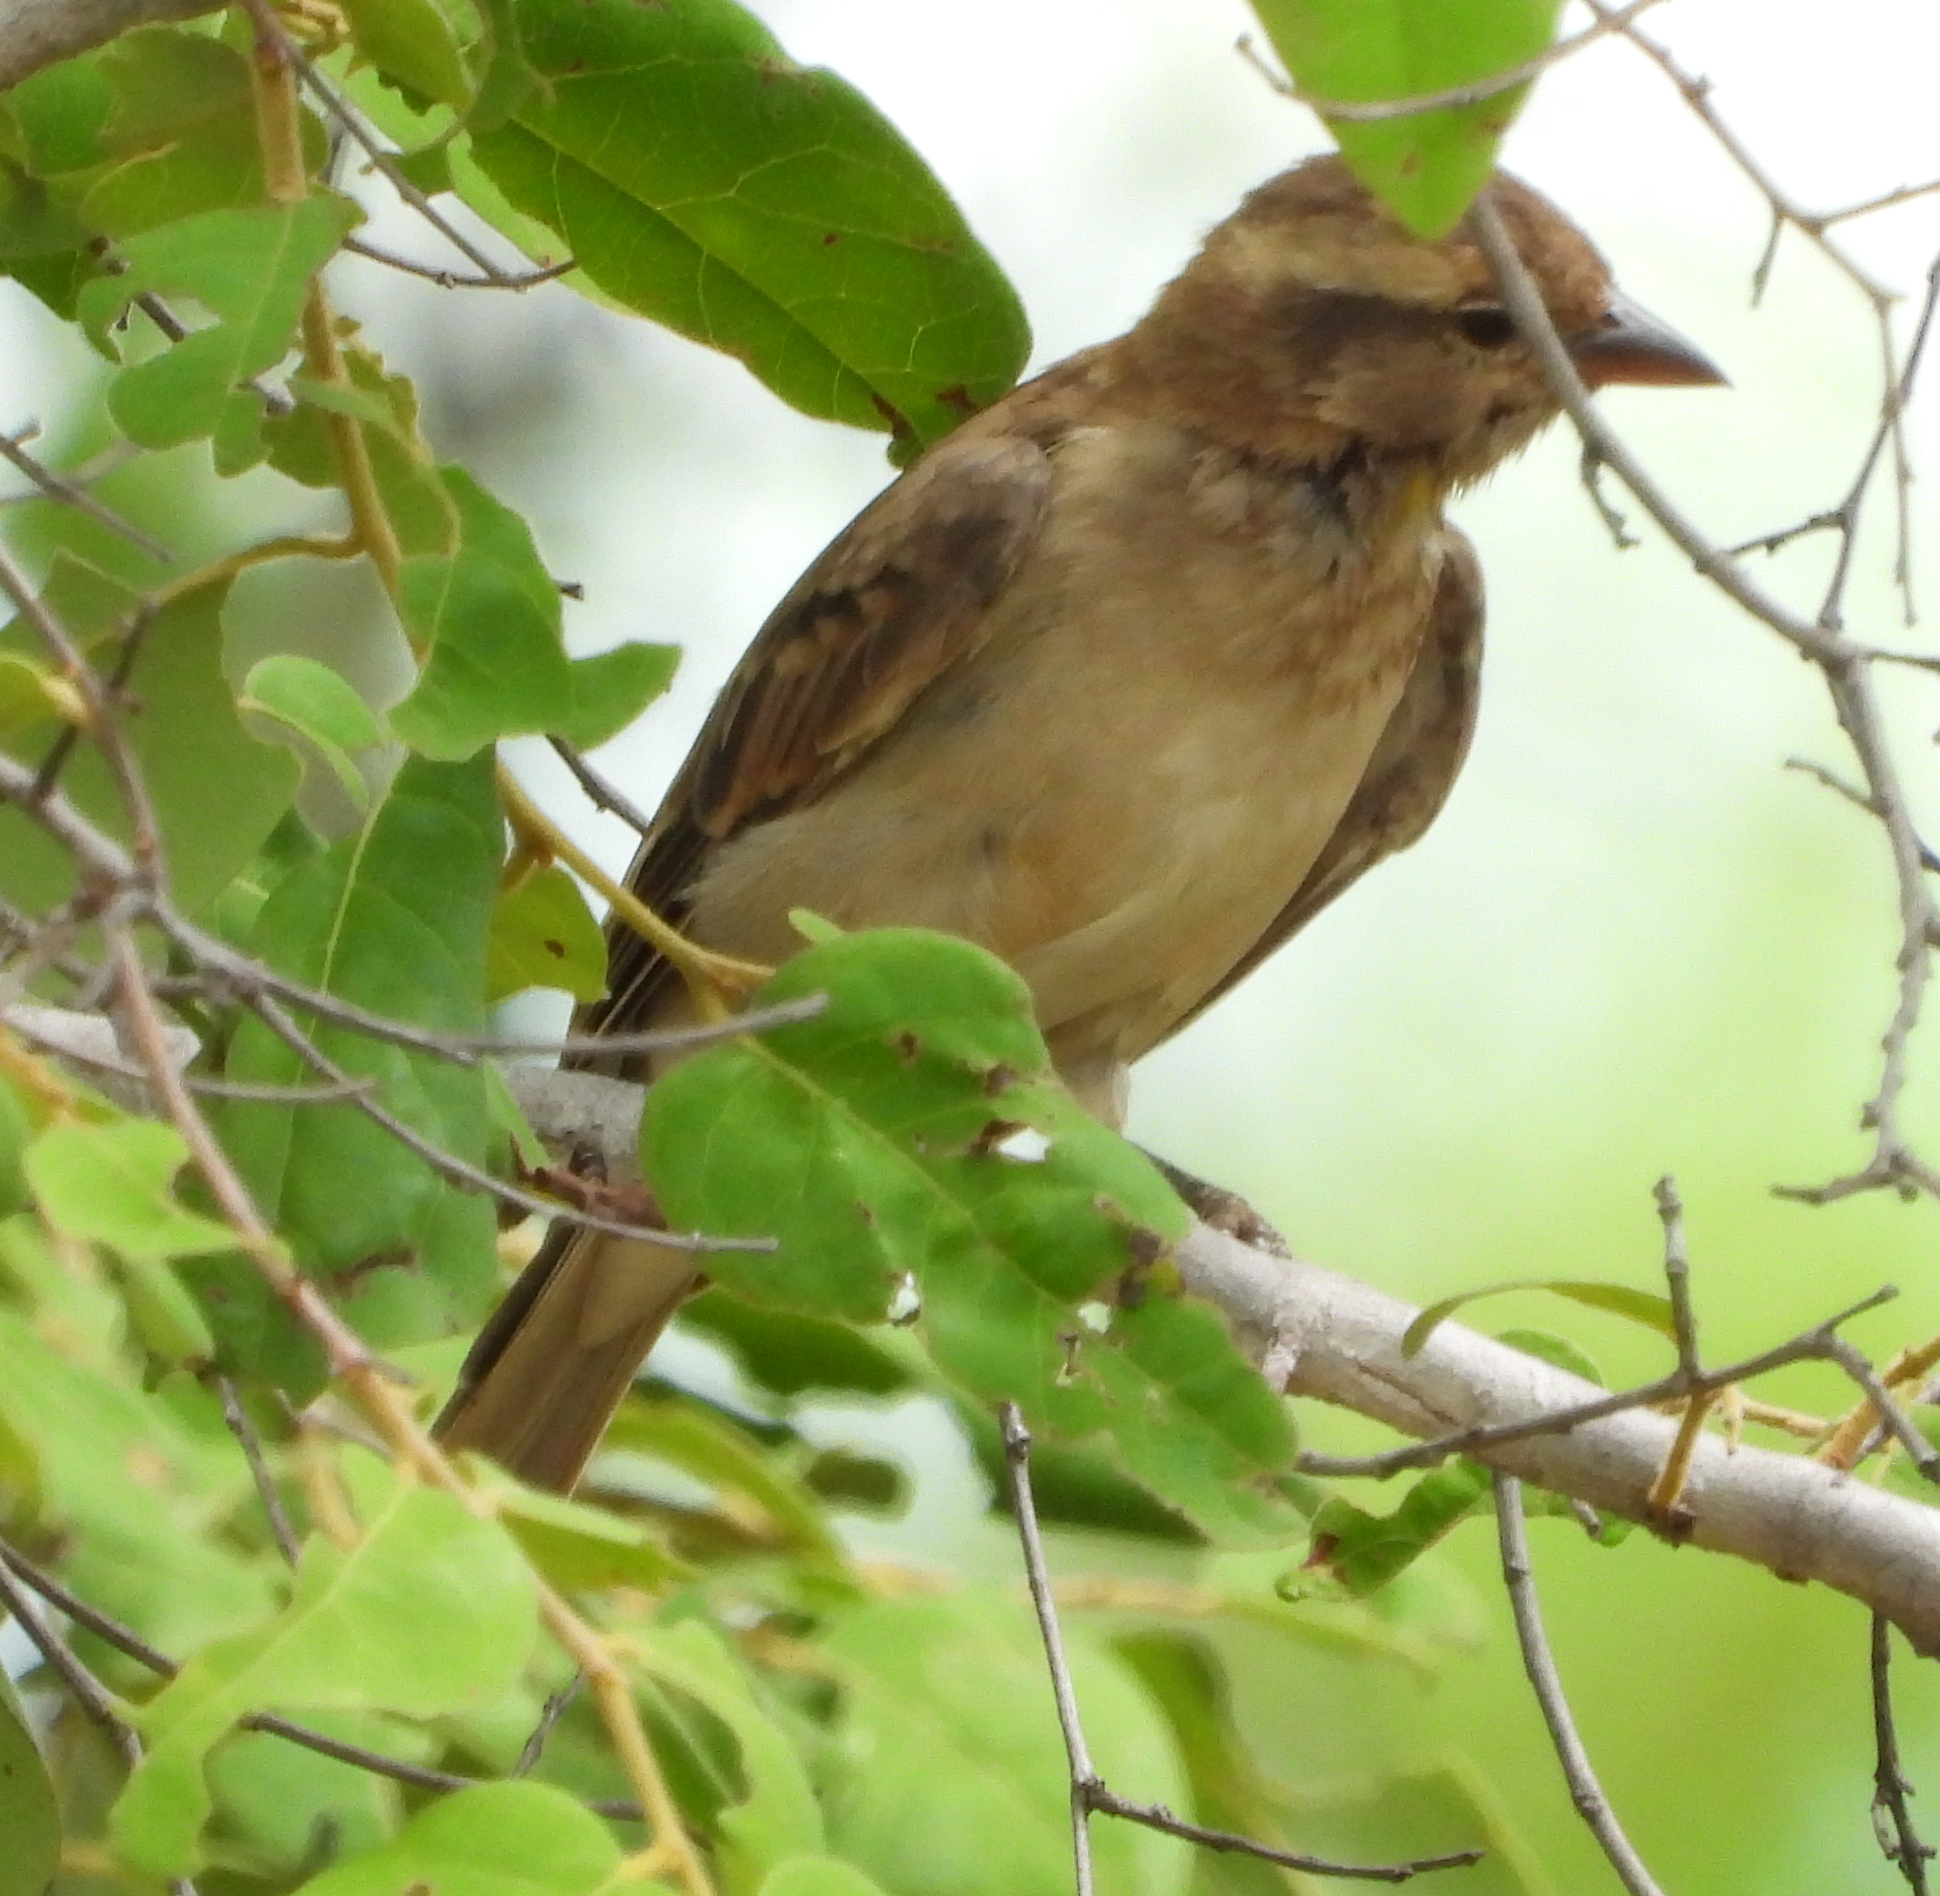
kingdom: Animalia
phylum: Chordata
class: Aves
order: Passeriformes
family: Passeridae
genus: Gymnoris
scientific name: Gymnoris superciliaris
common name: Yellow-throated petronia
